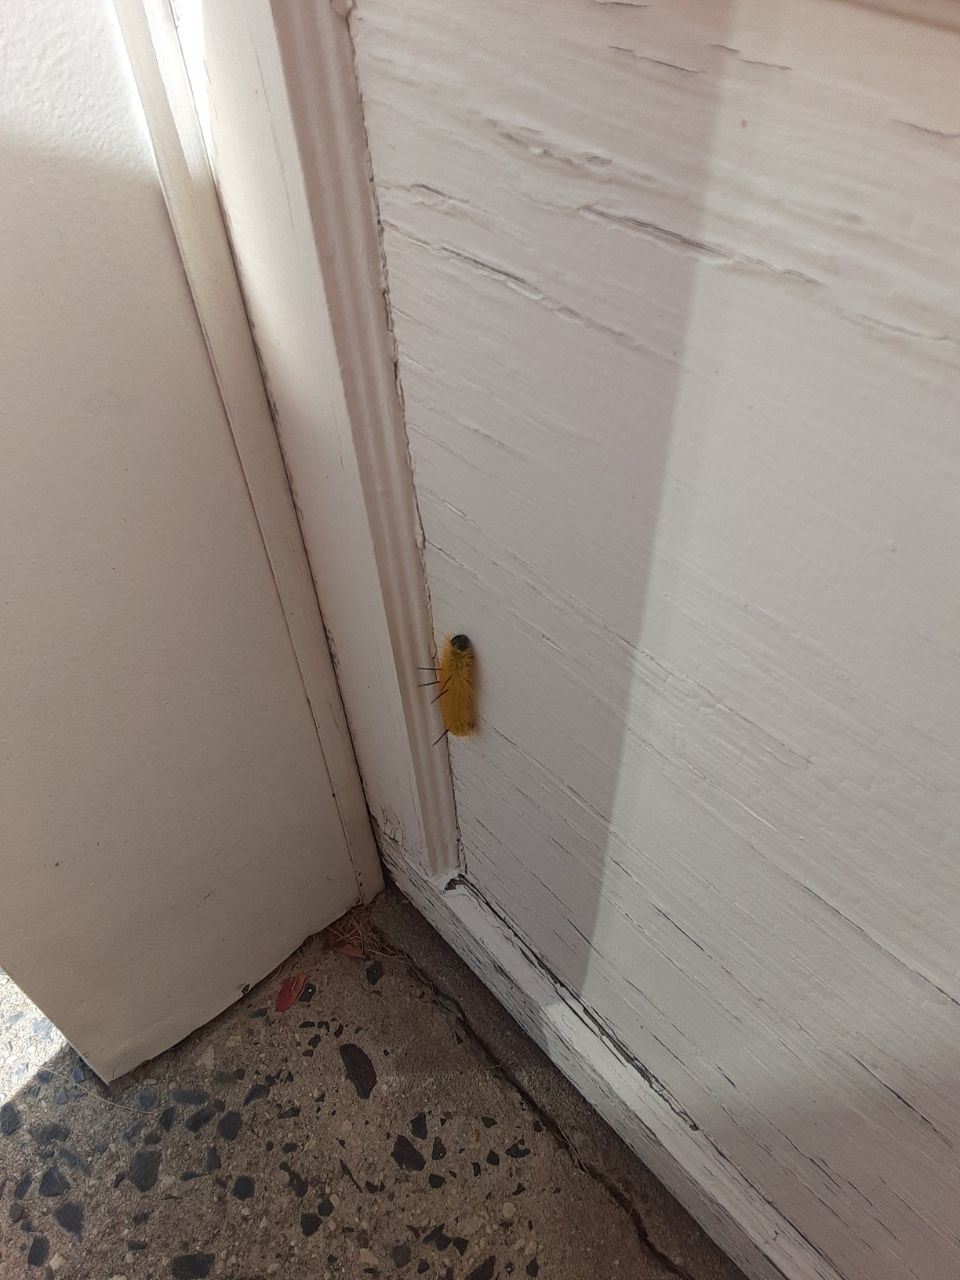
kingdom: Animalia
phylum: Arthropoda
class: Insecta
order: Lepidoptera
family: Noctuidae
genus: Acronicta
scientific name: Acronicta americana
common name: American dagger
